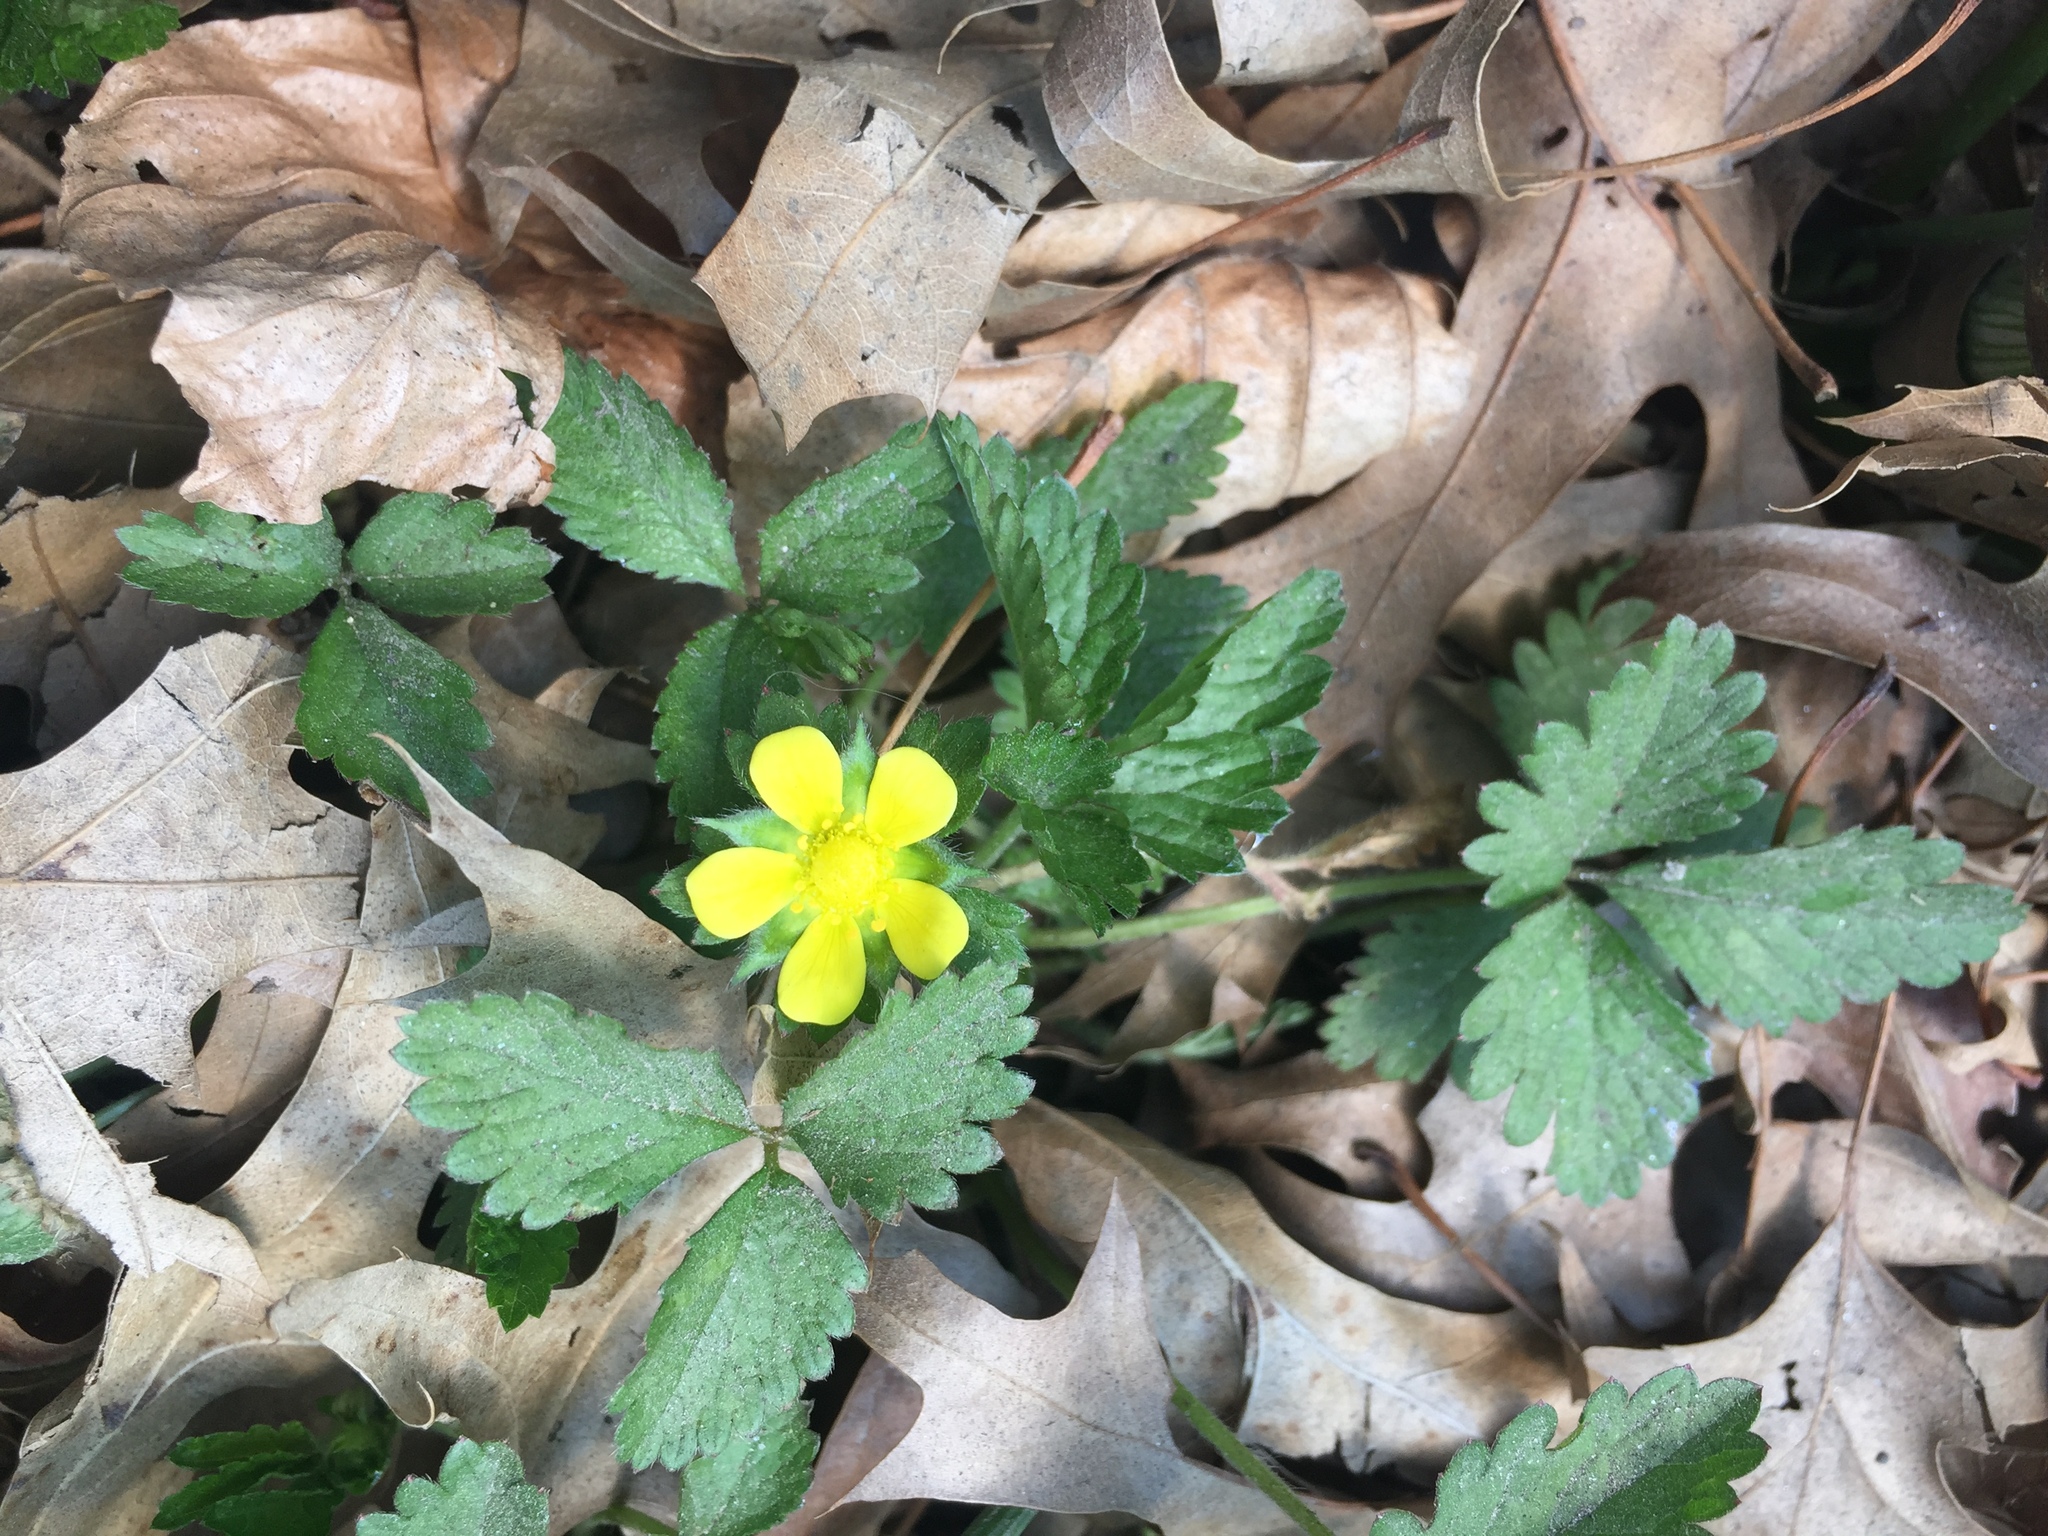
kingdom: Plantae
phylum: Tracheophyta
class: Magnoliopsida
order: Rosales
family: Rosaceae
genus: Potentilla
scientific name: Potentilla indica
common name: Yellow-flowered strawberry
